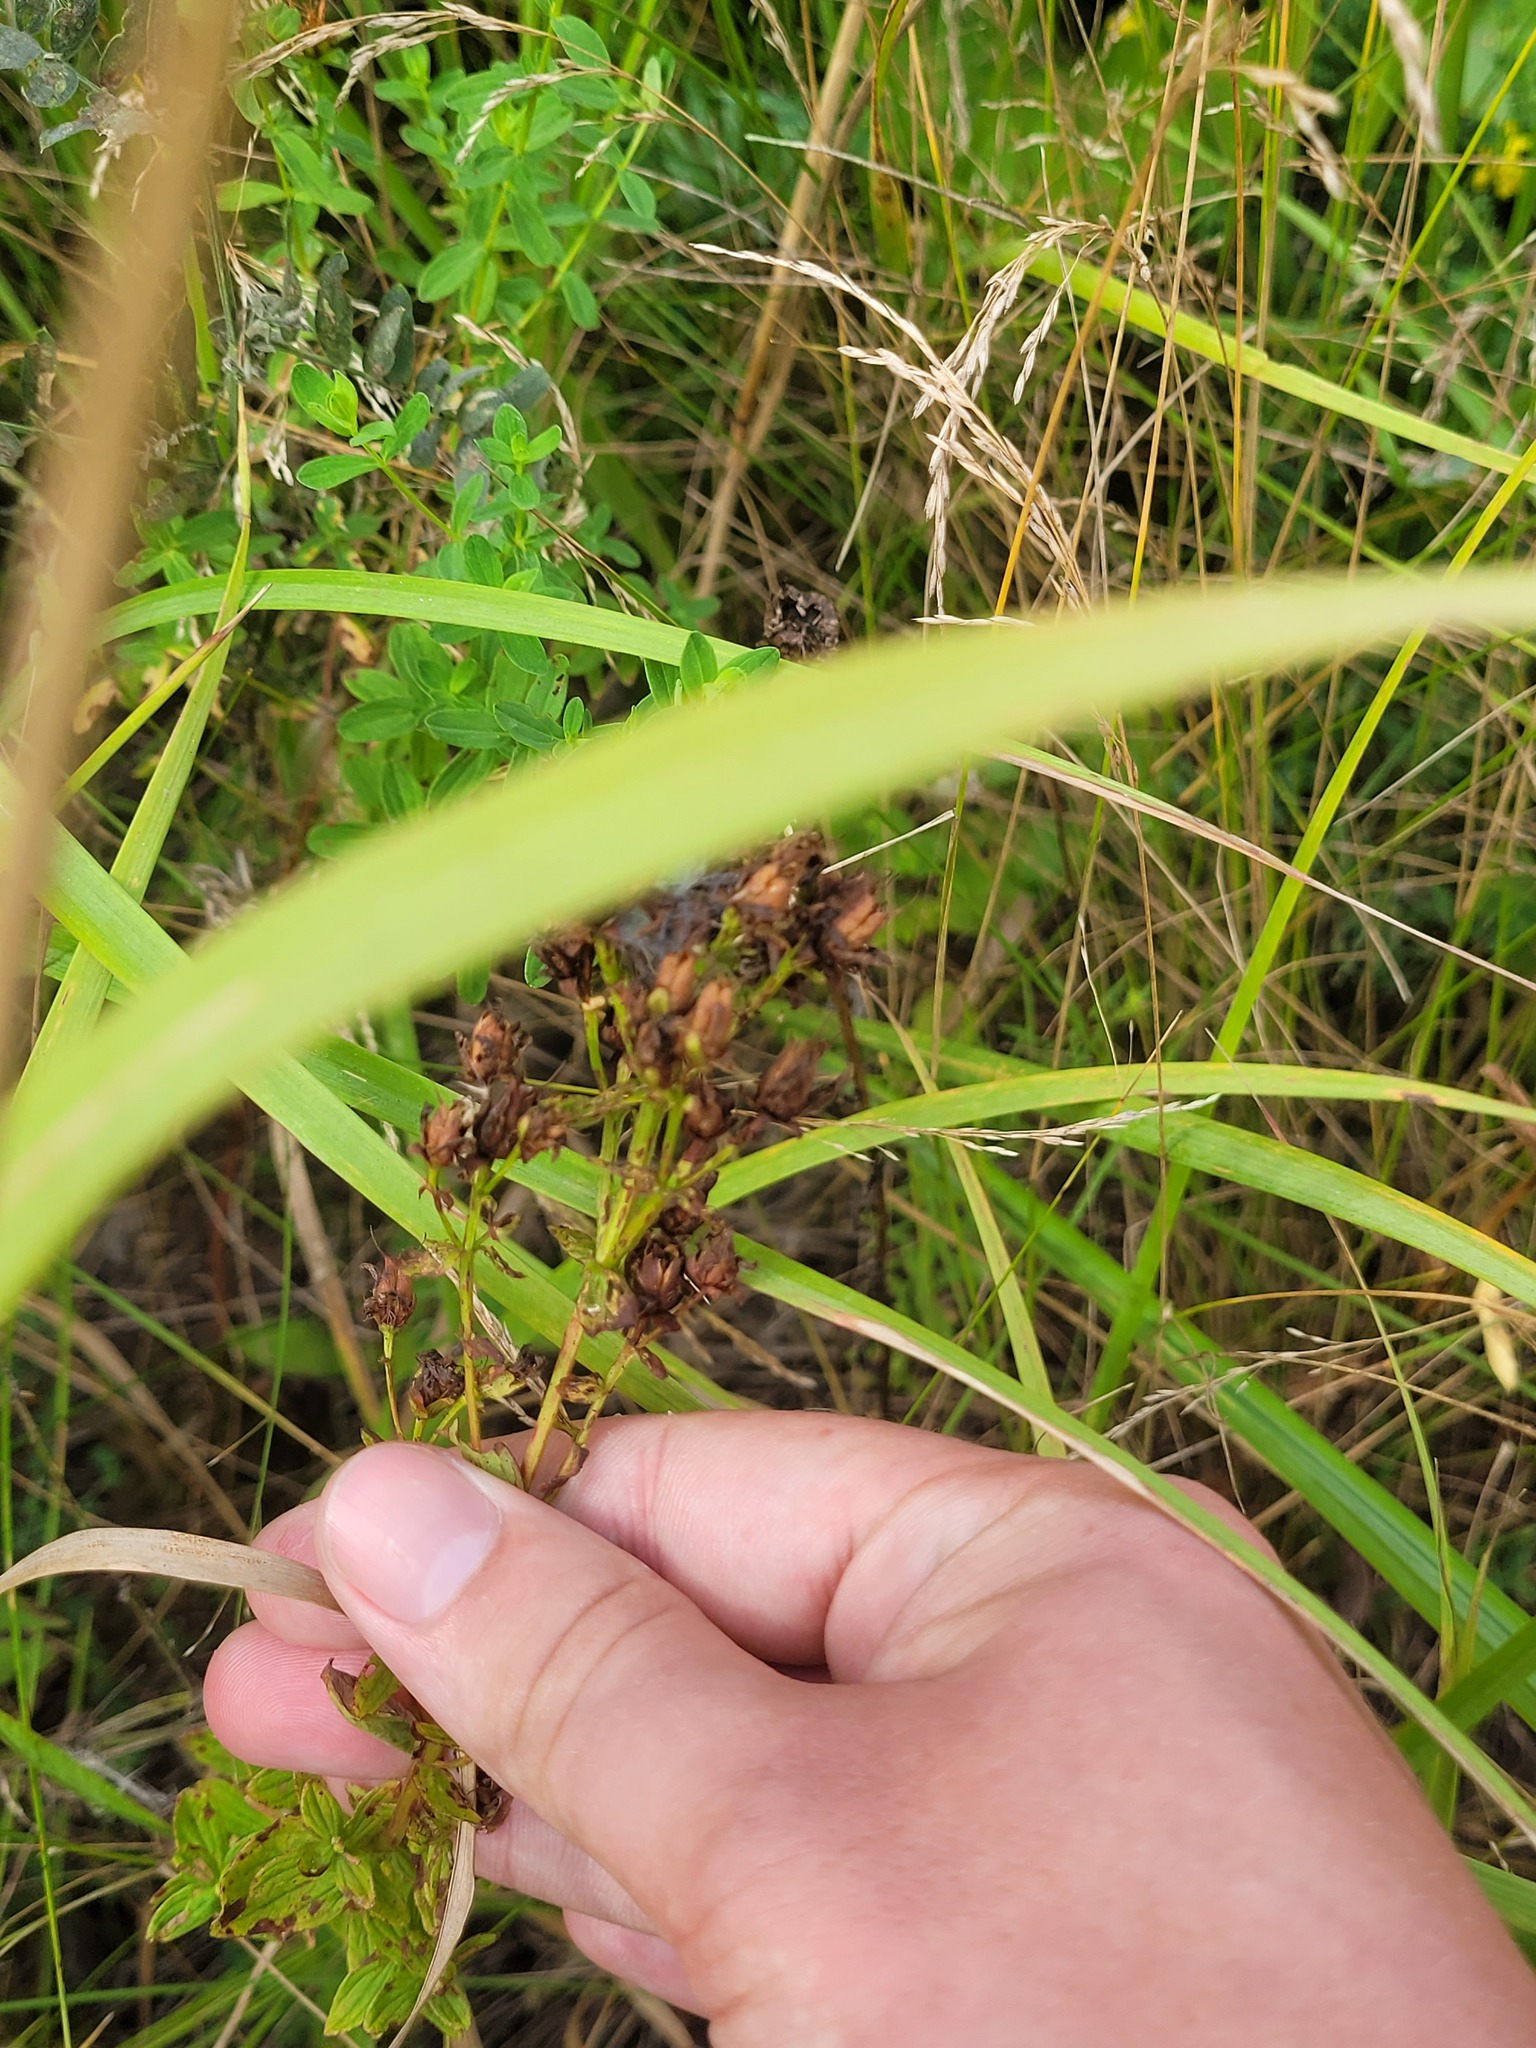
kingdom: Plantae
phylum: Tracheophyta
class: Magnoliopsida
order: Malpighiales
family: Hypericaceae
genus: Hypericum
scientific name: Hypericum maculatum
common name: Imperforate st. john's-wort
